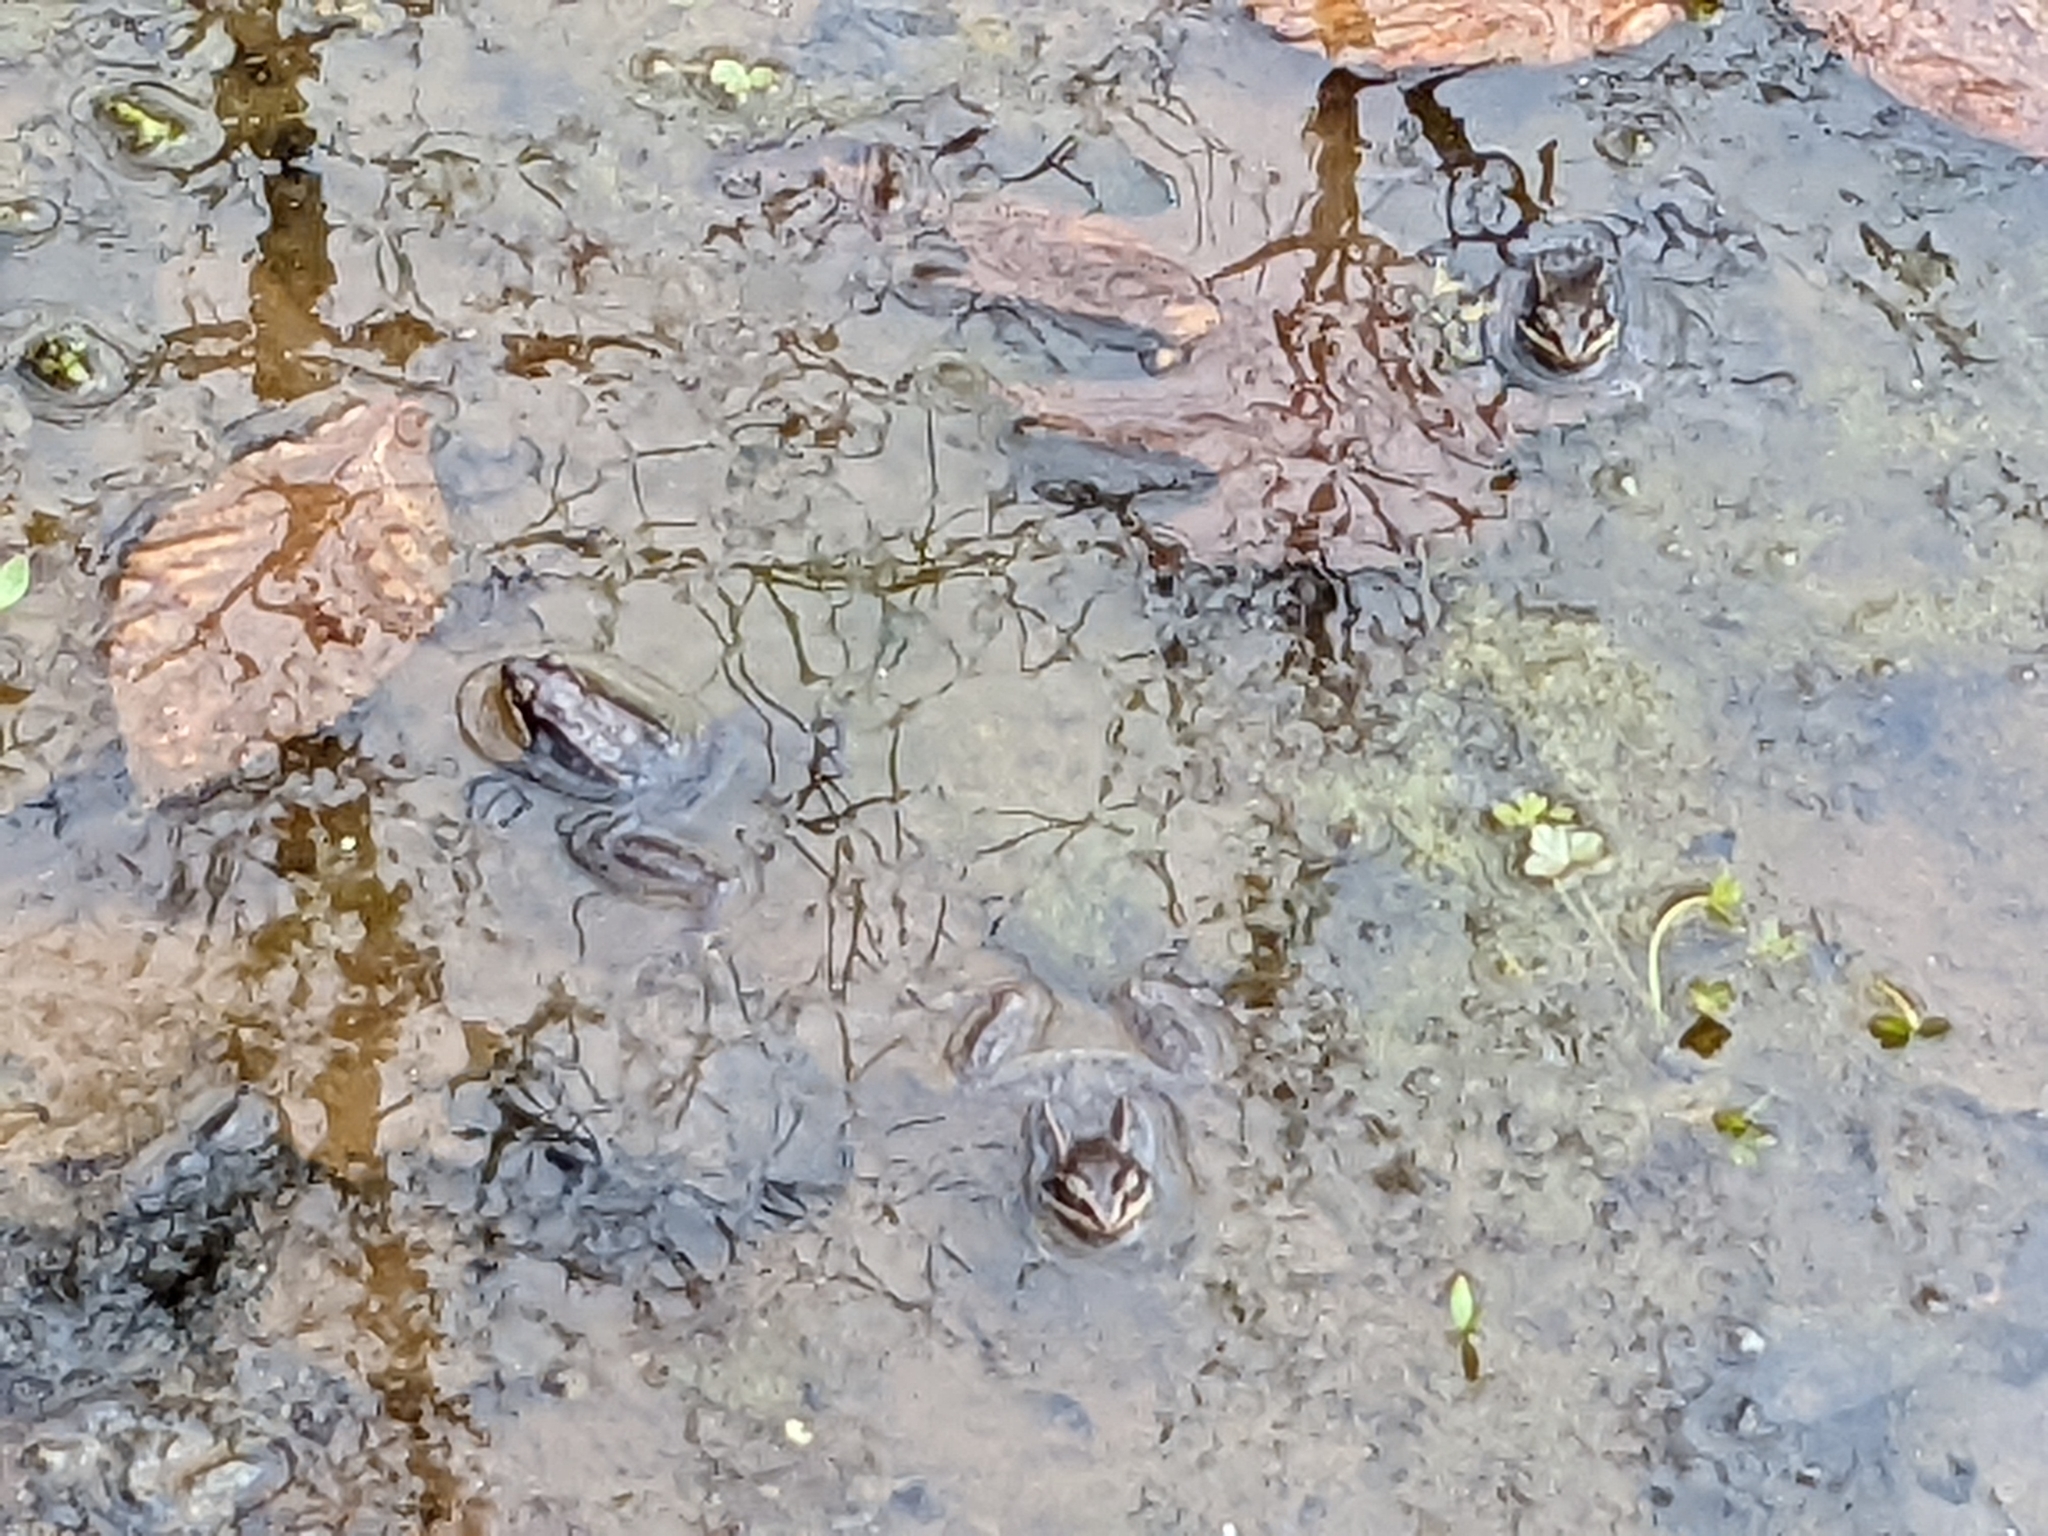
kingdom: Animalia
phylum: Chordata
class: Amphibia
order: Anura
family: Ranidae
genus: Lithobates
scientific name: Lithobates sylvaticus
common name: Wood frog
